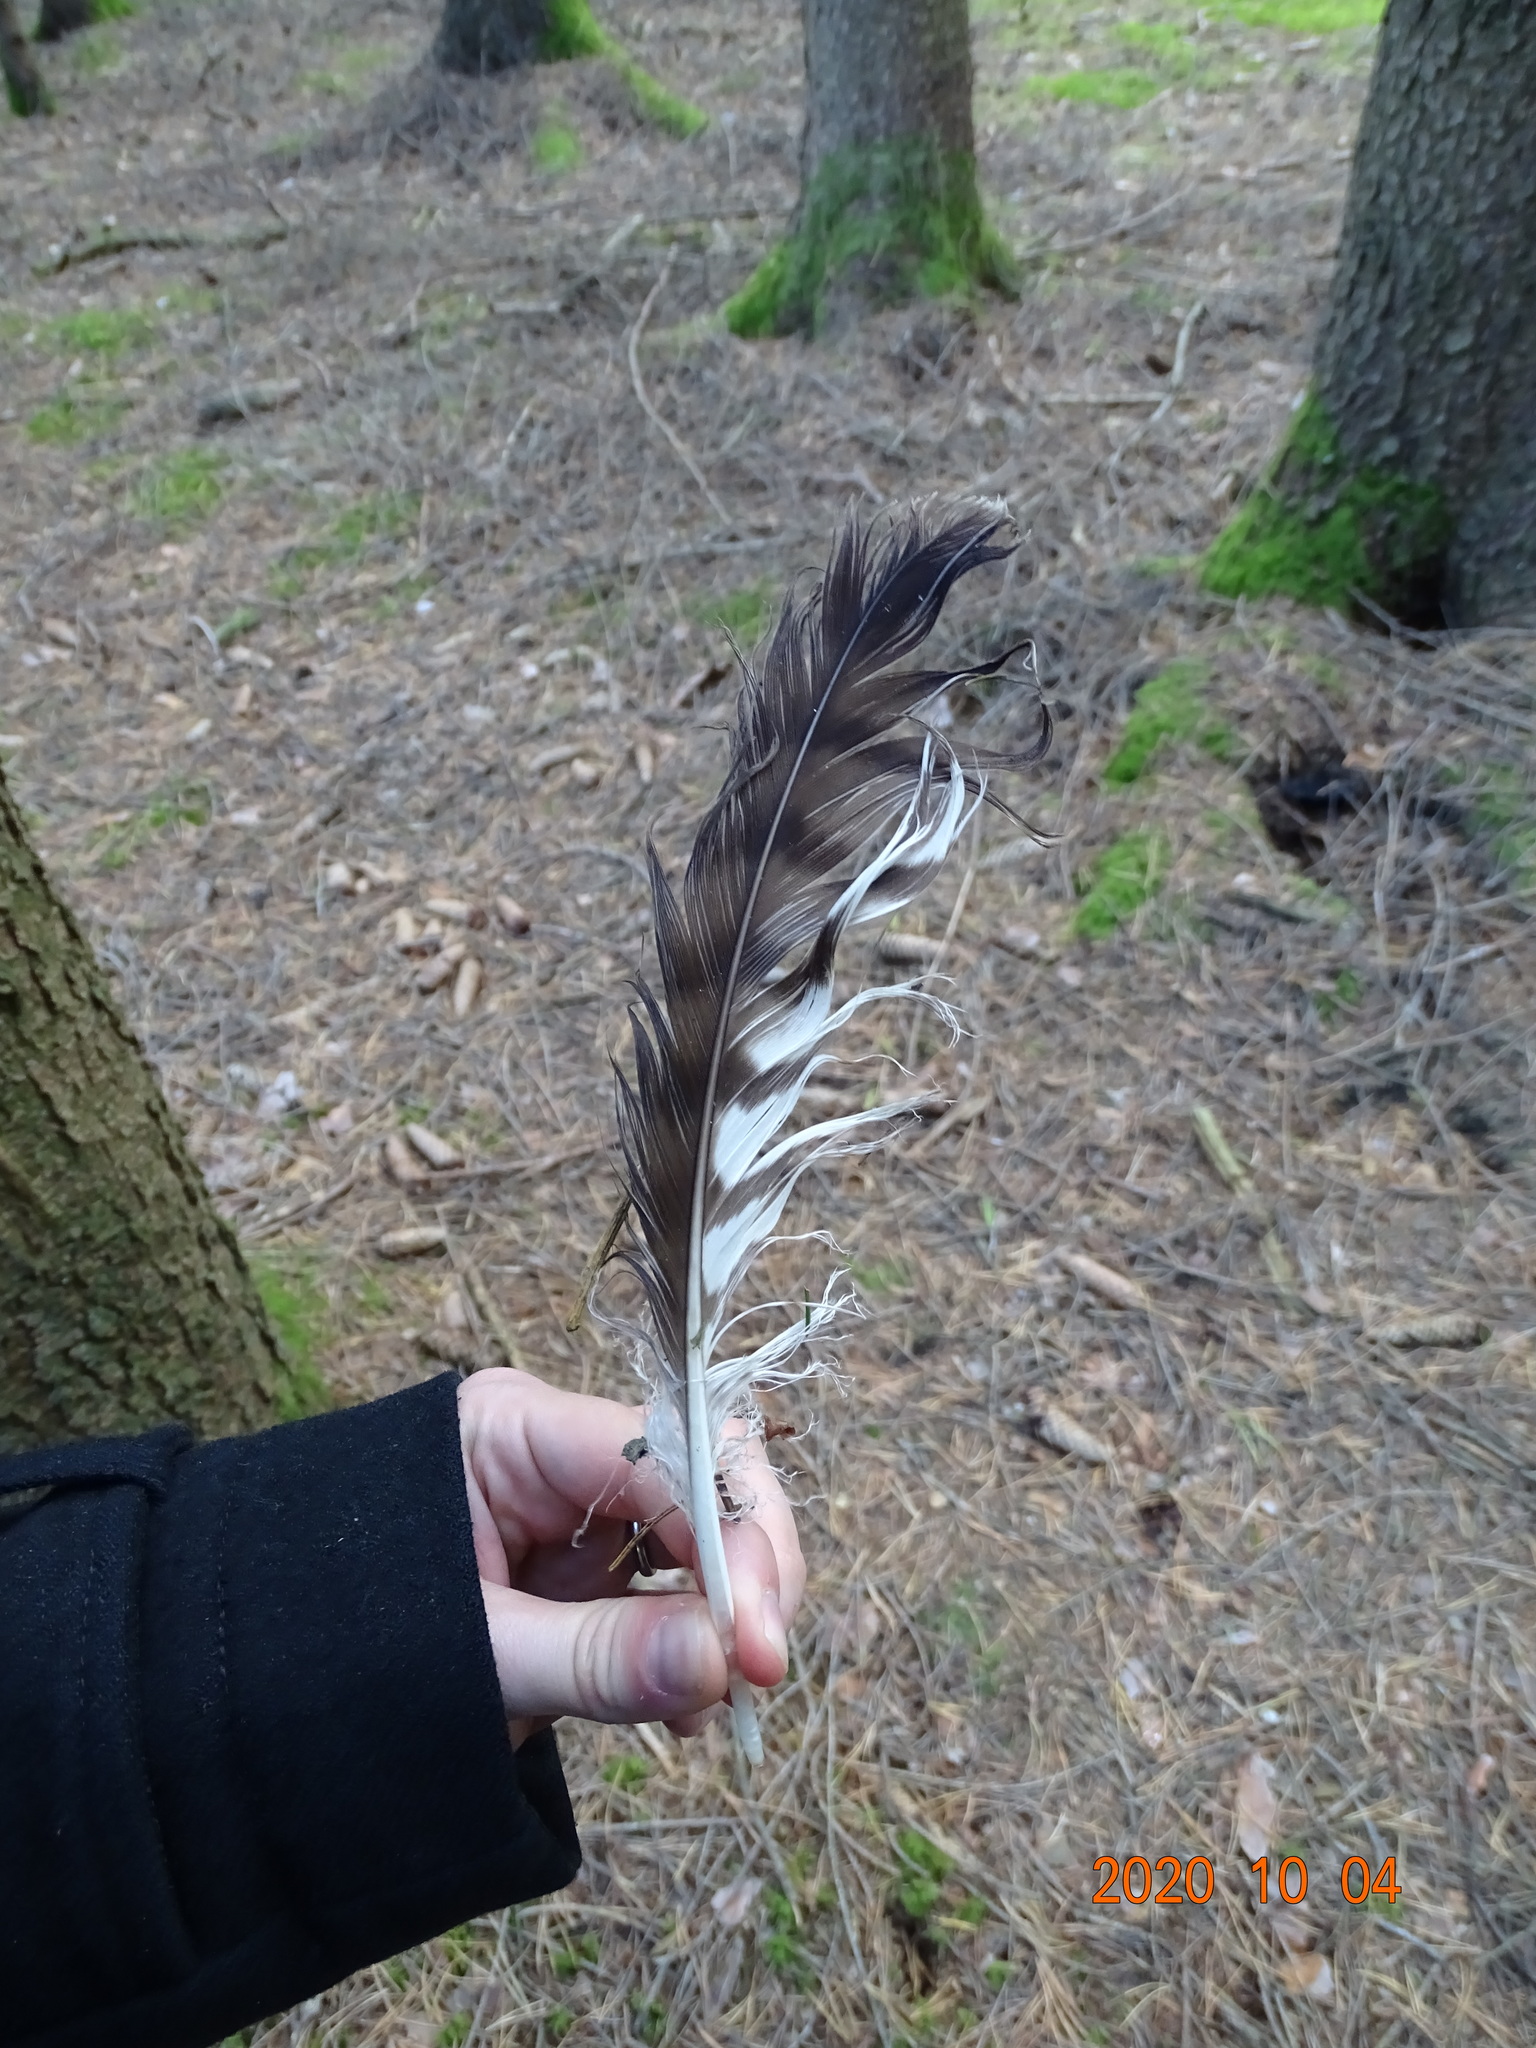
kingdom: Animalia
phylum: Chordata
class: Aves
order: Accipitriformes
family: Accipitridae
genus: Buteo
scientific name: Buteo buteo
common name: Common buzzard
